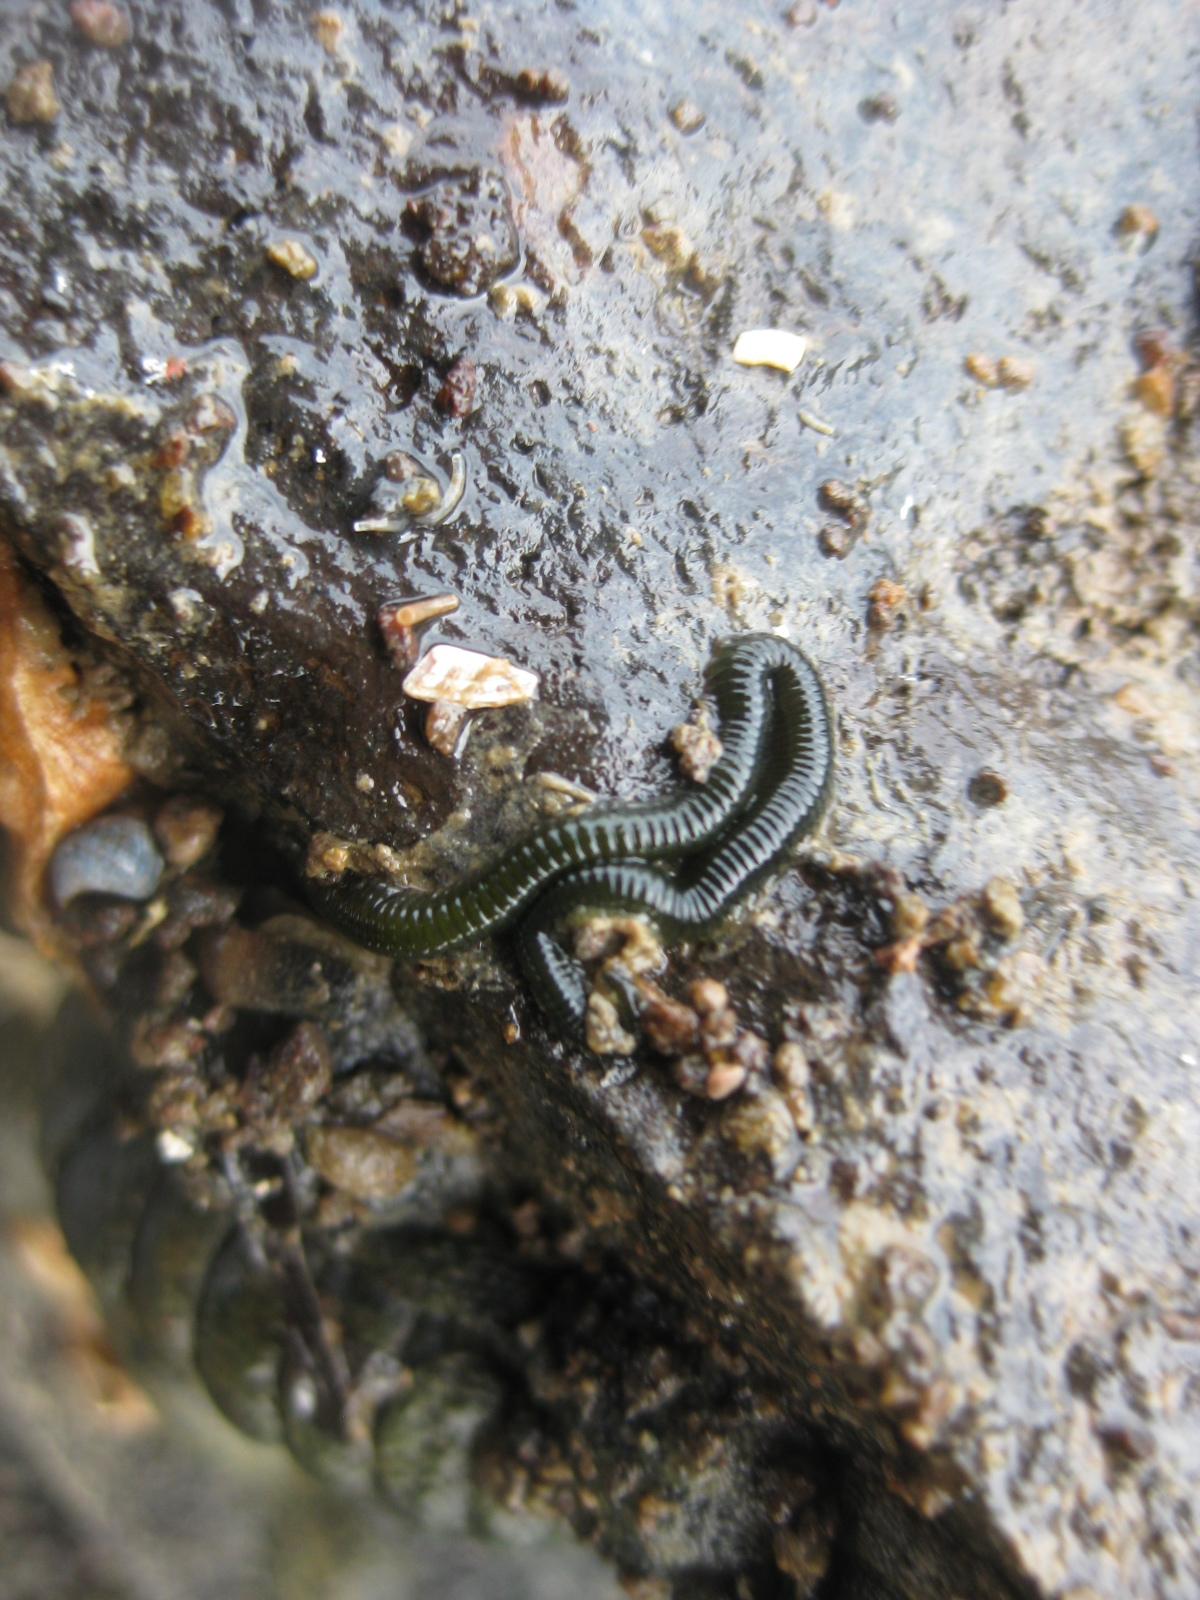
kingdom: Animalia
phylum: Annelida
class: Polychaeta
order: Phyllodocida
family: Phyllodocidae
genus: Eulalia
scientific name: Eulalia microphylla
